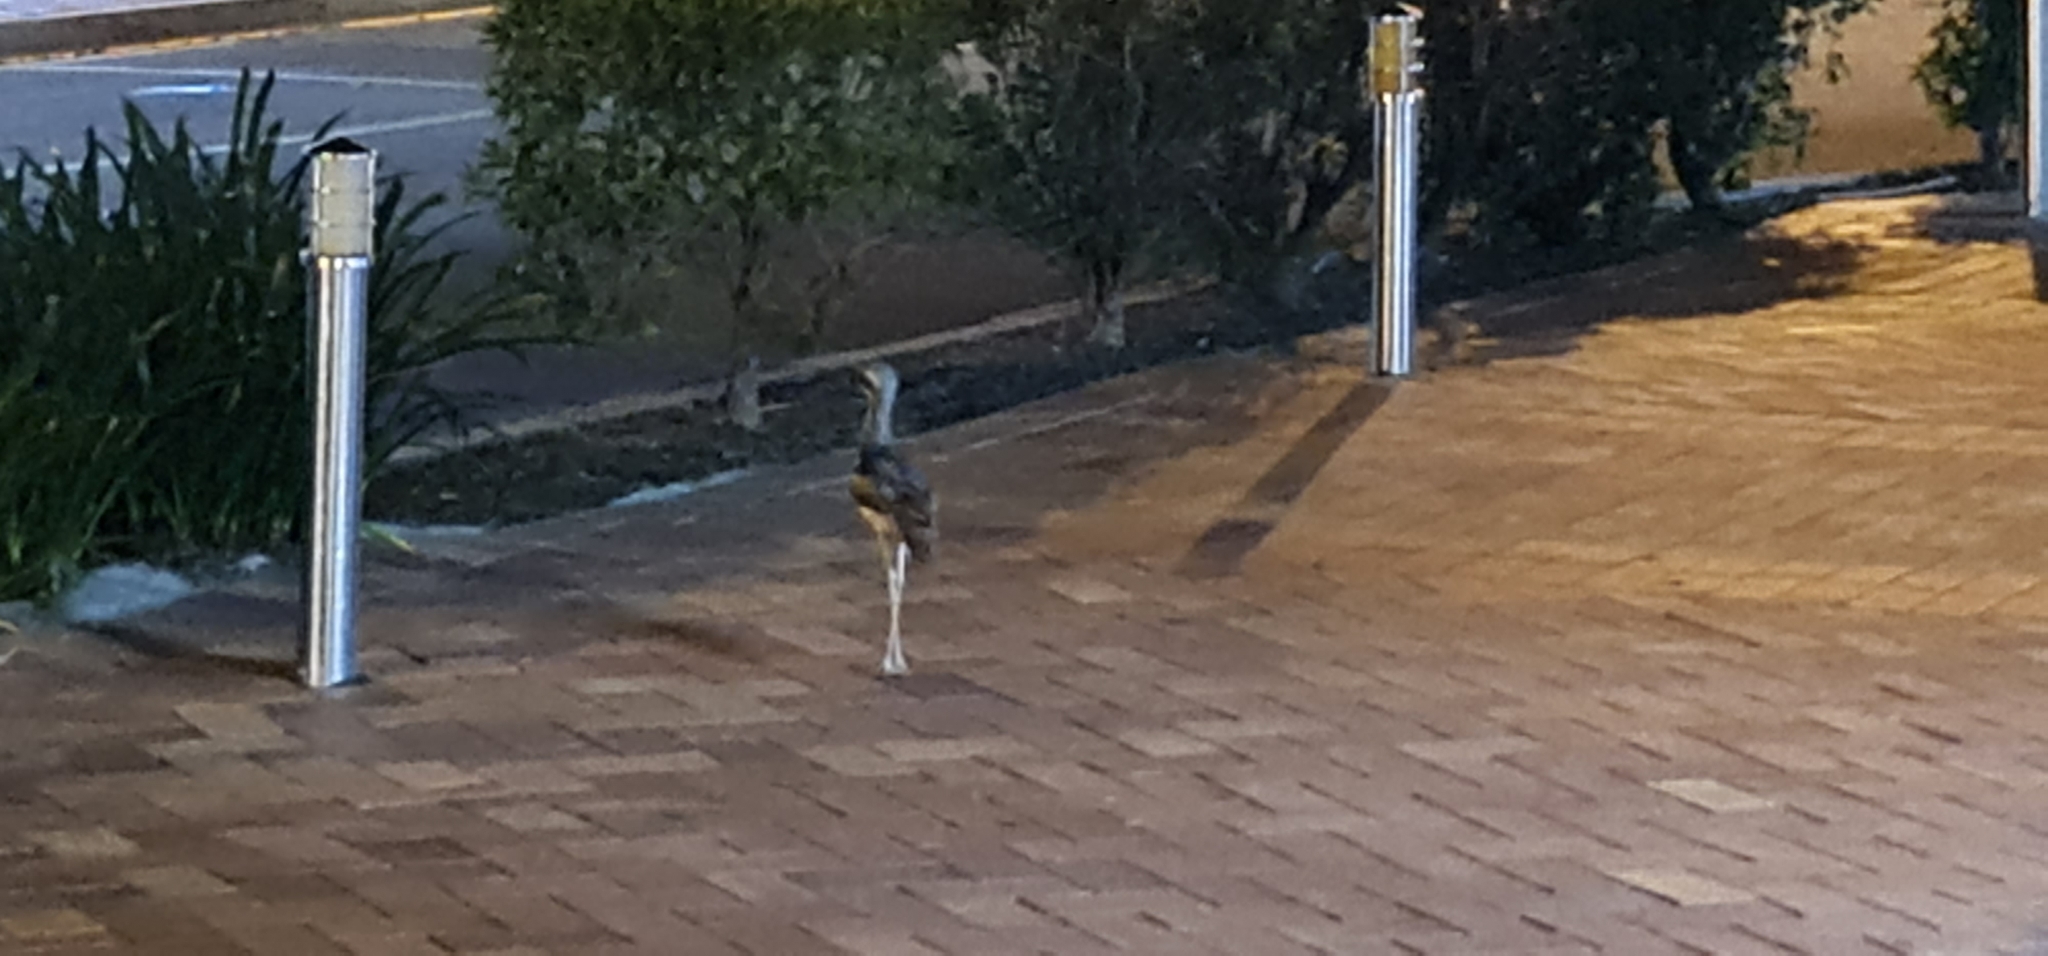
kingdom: Animalia
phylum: Chordata
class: Aves
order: Charadriiformes
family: Burhinidae
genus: Burhinus
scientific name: Burhinus grallarius
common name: Bush stone-curlew
